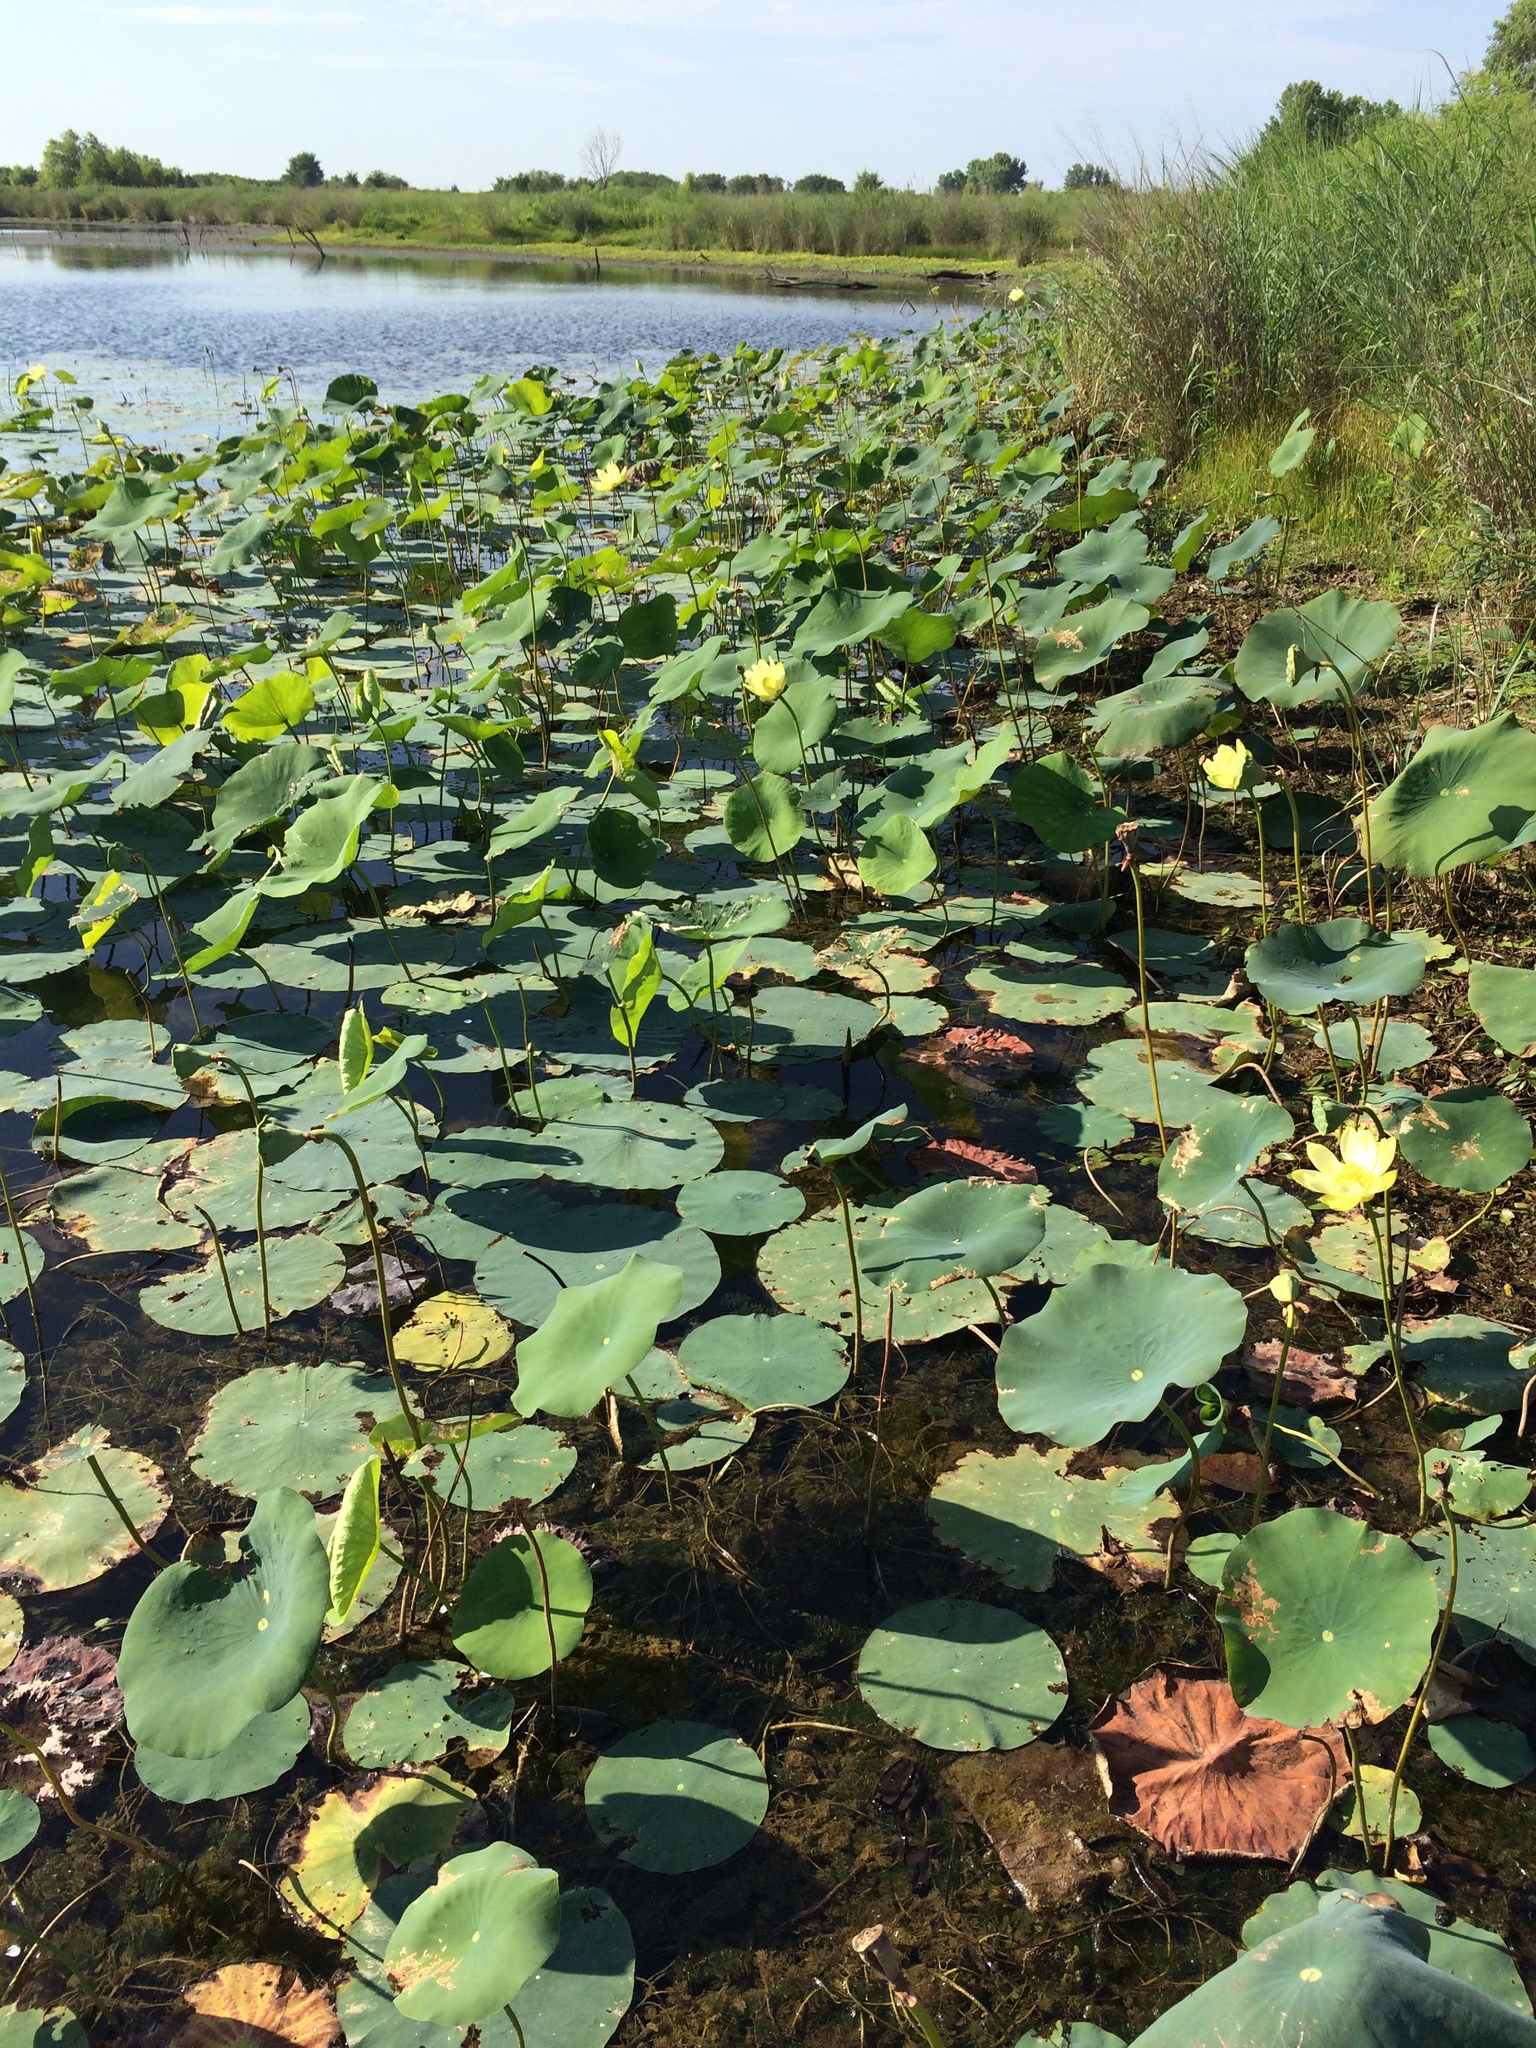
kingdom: Plantae
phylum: Tracheophyta
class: Magnoliopsida
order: Proteales
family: Nelumbonaceae
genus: Nelumbo
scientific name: Nelumbo lutea
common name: American lotus
